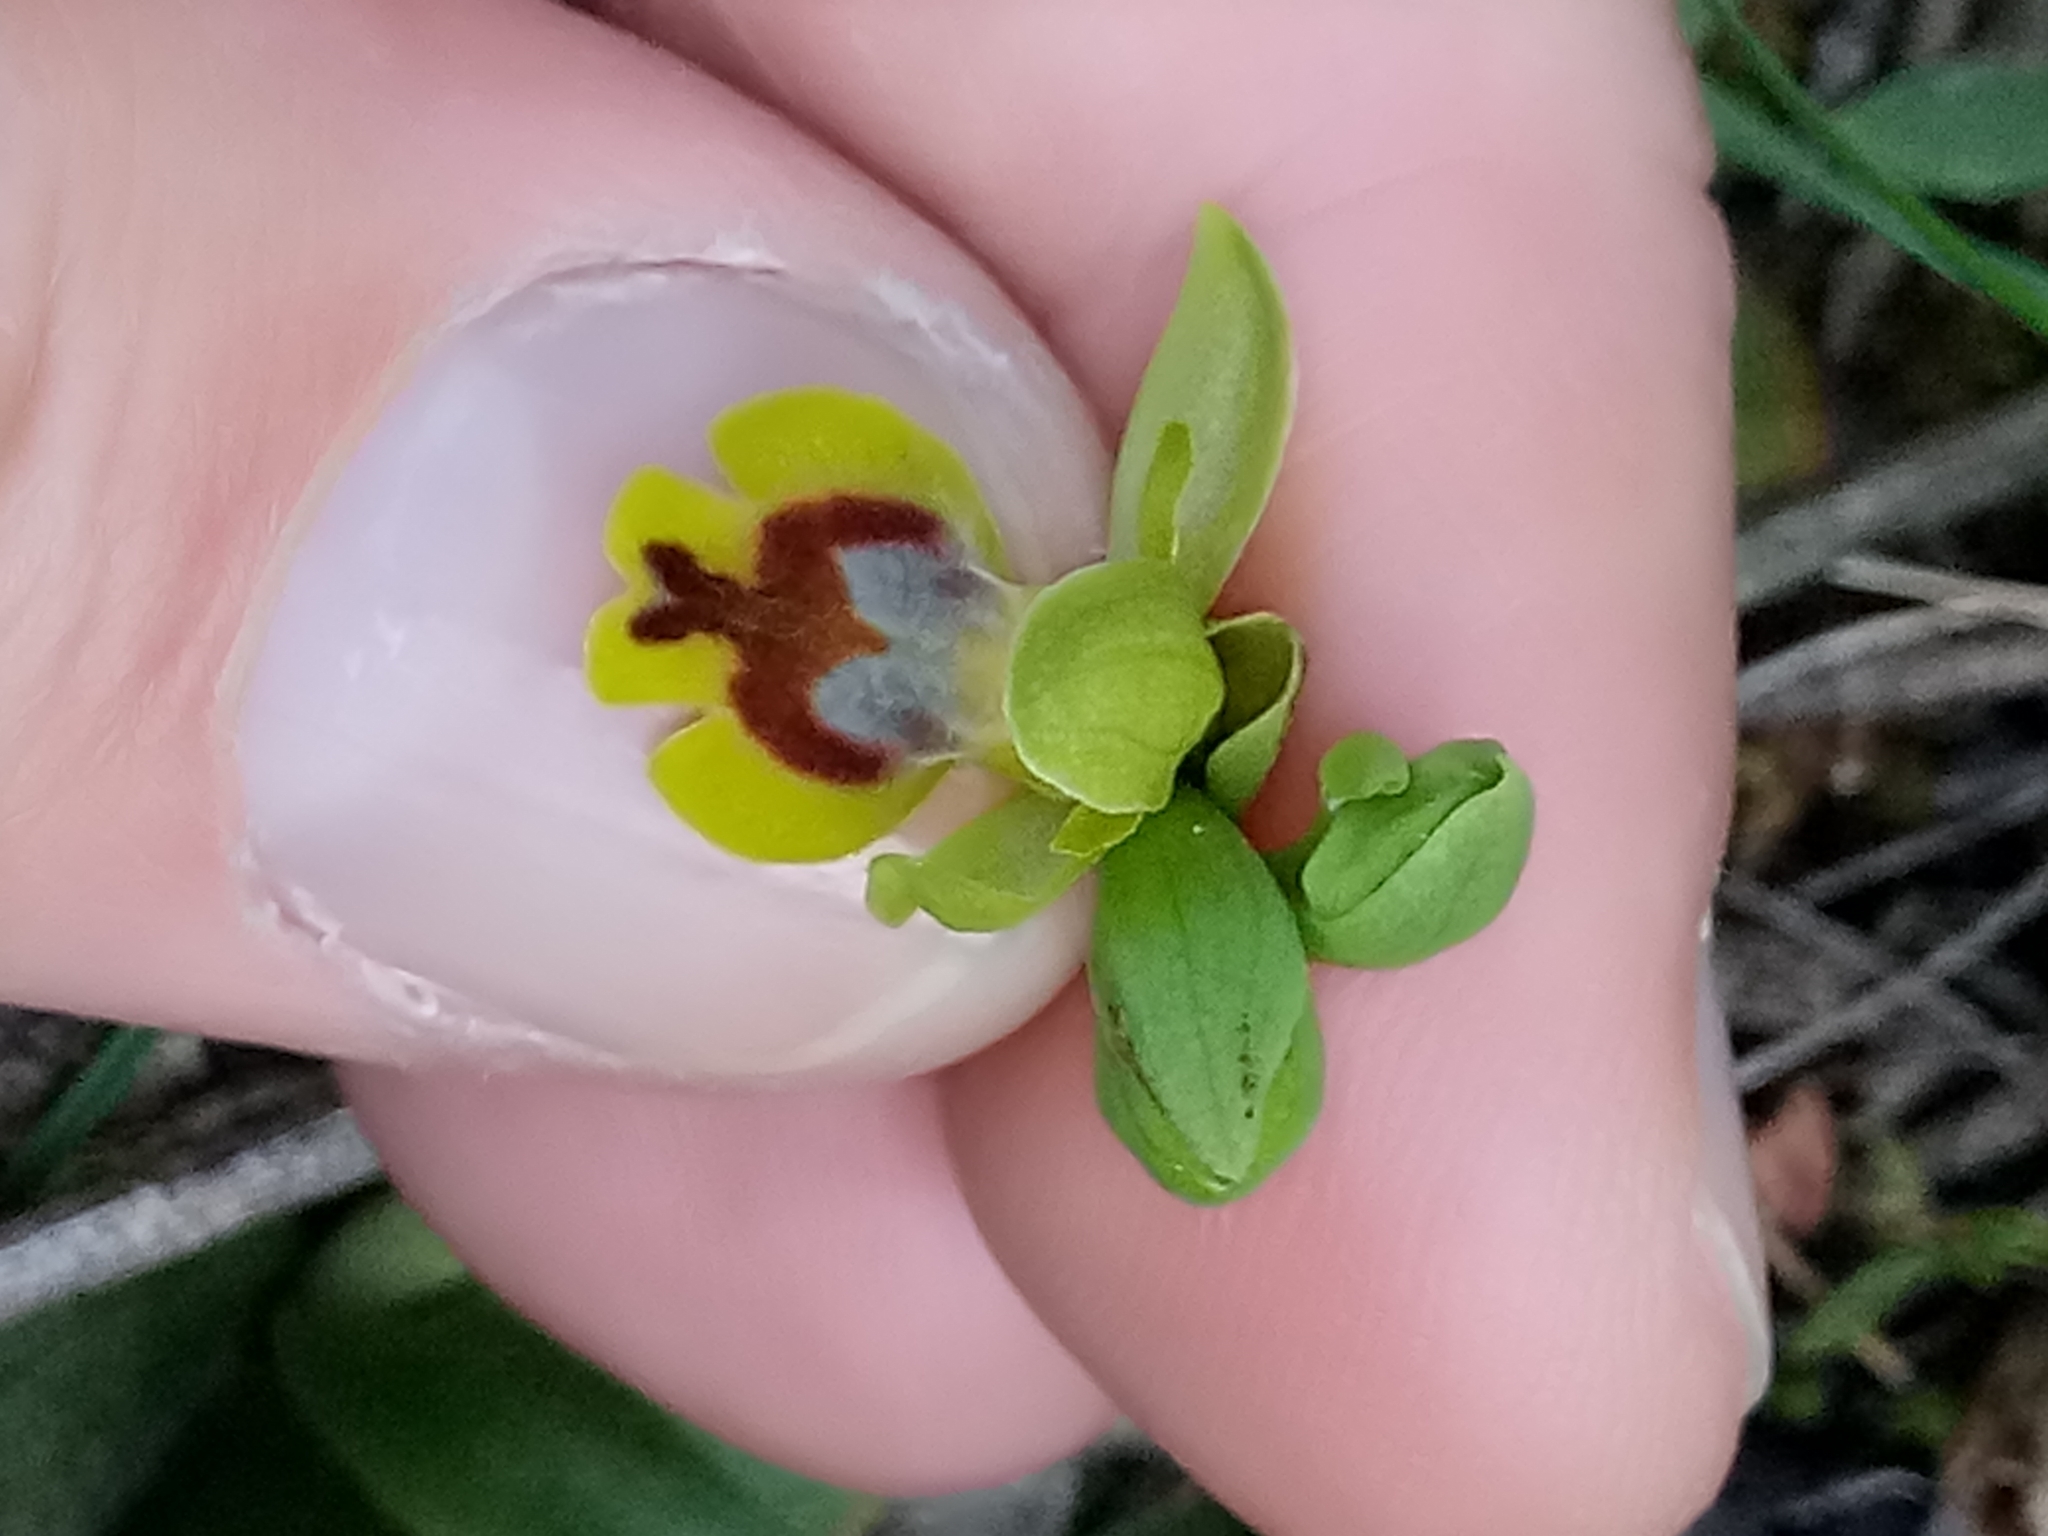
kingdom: Plantae
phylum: Tracheophyta
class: Liliopsida
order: Asparagales
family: Orchidaceae
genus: Ophrys
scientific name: Ophrys battandieri
